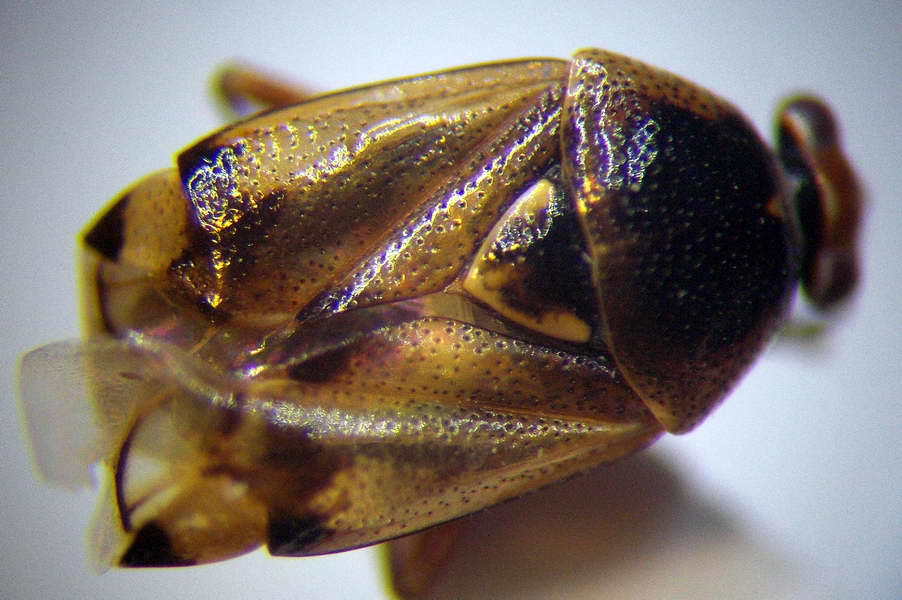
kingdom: Animalia
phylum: Arthropoda
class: Insecta
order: Hemiptera
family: Miridae
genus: Deraeocoris
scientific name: Deraeocoris serenus
